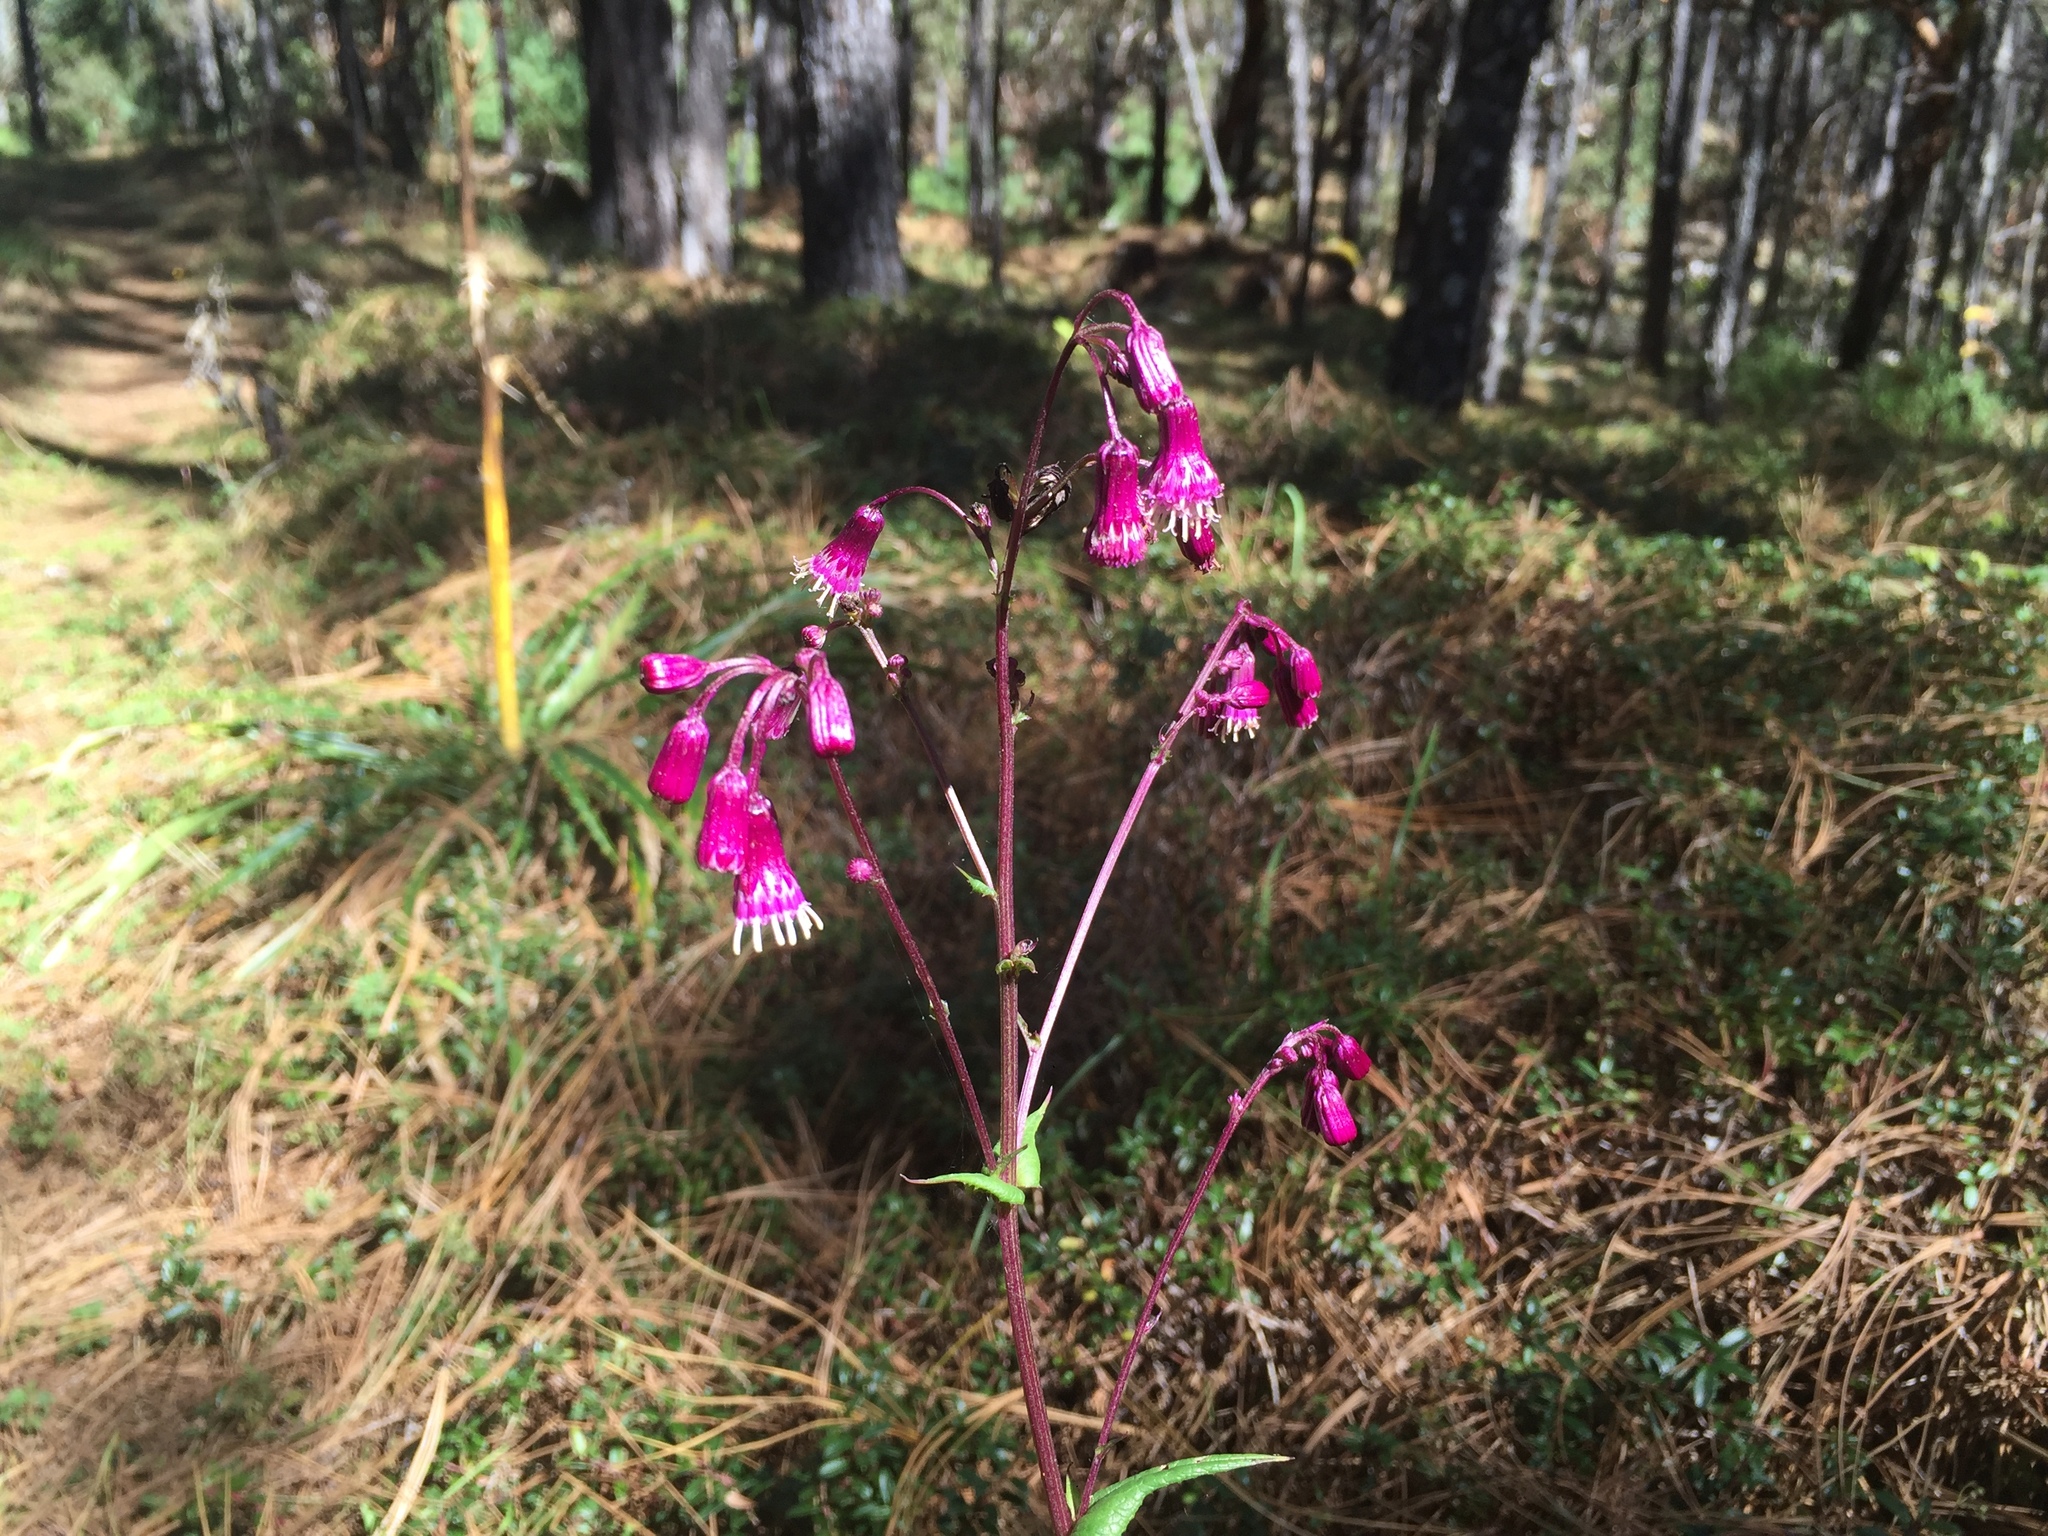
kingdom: Plantae
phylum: Tracheophyta
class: Magnoliopsida
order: Asterales
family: Asteraceae
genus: Senecio
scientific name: Senecio callosus
